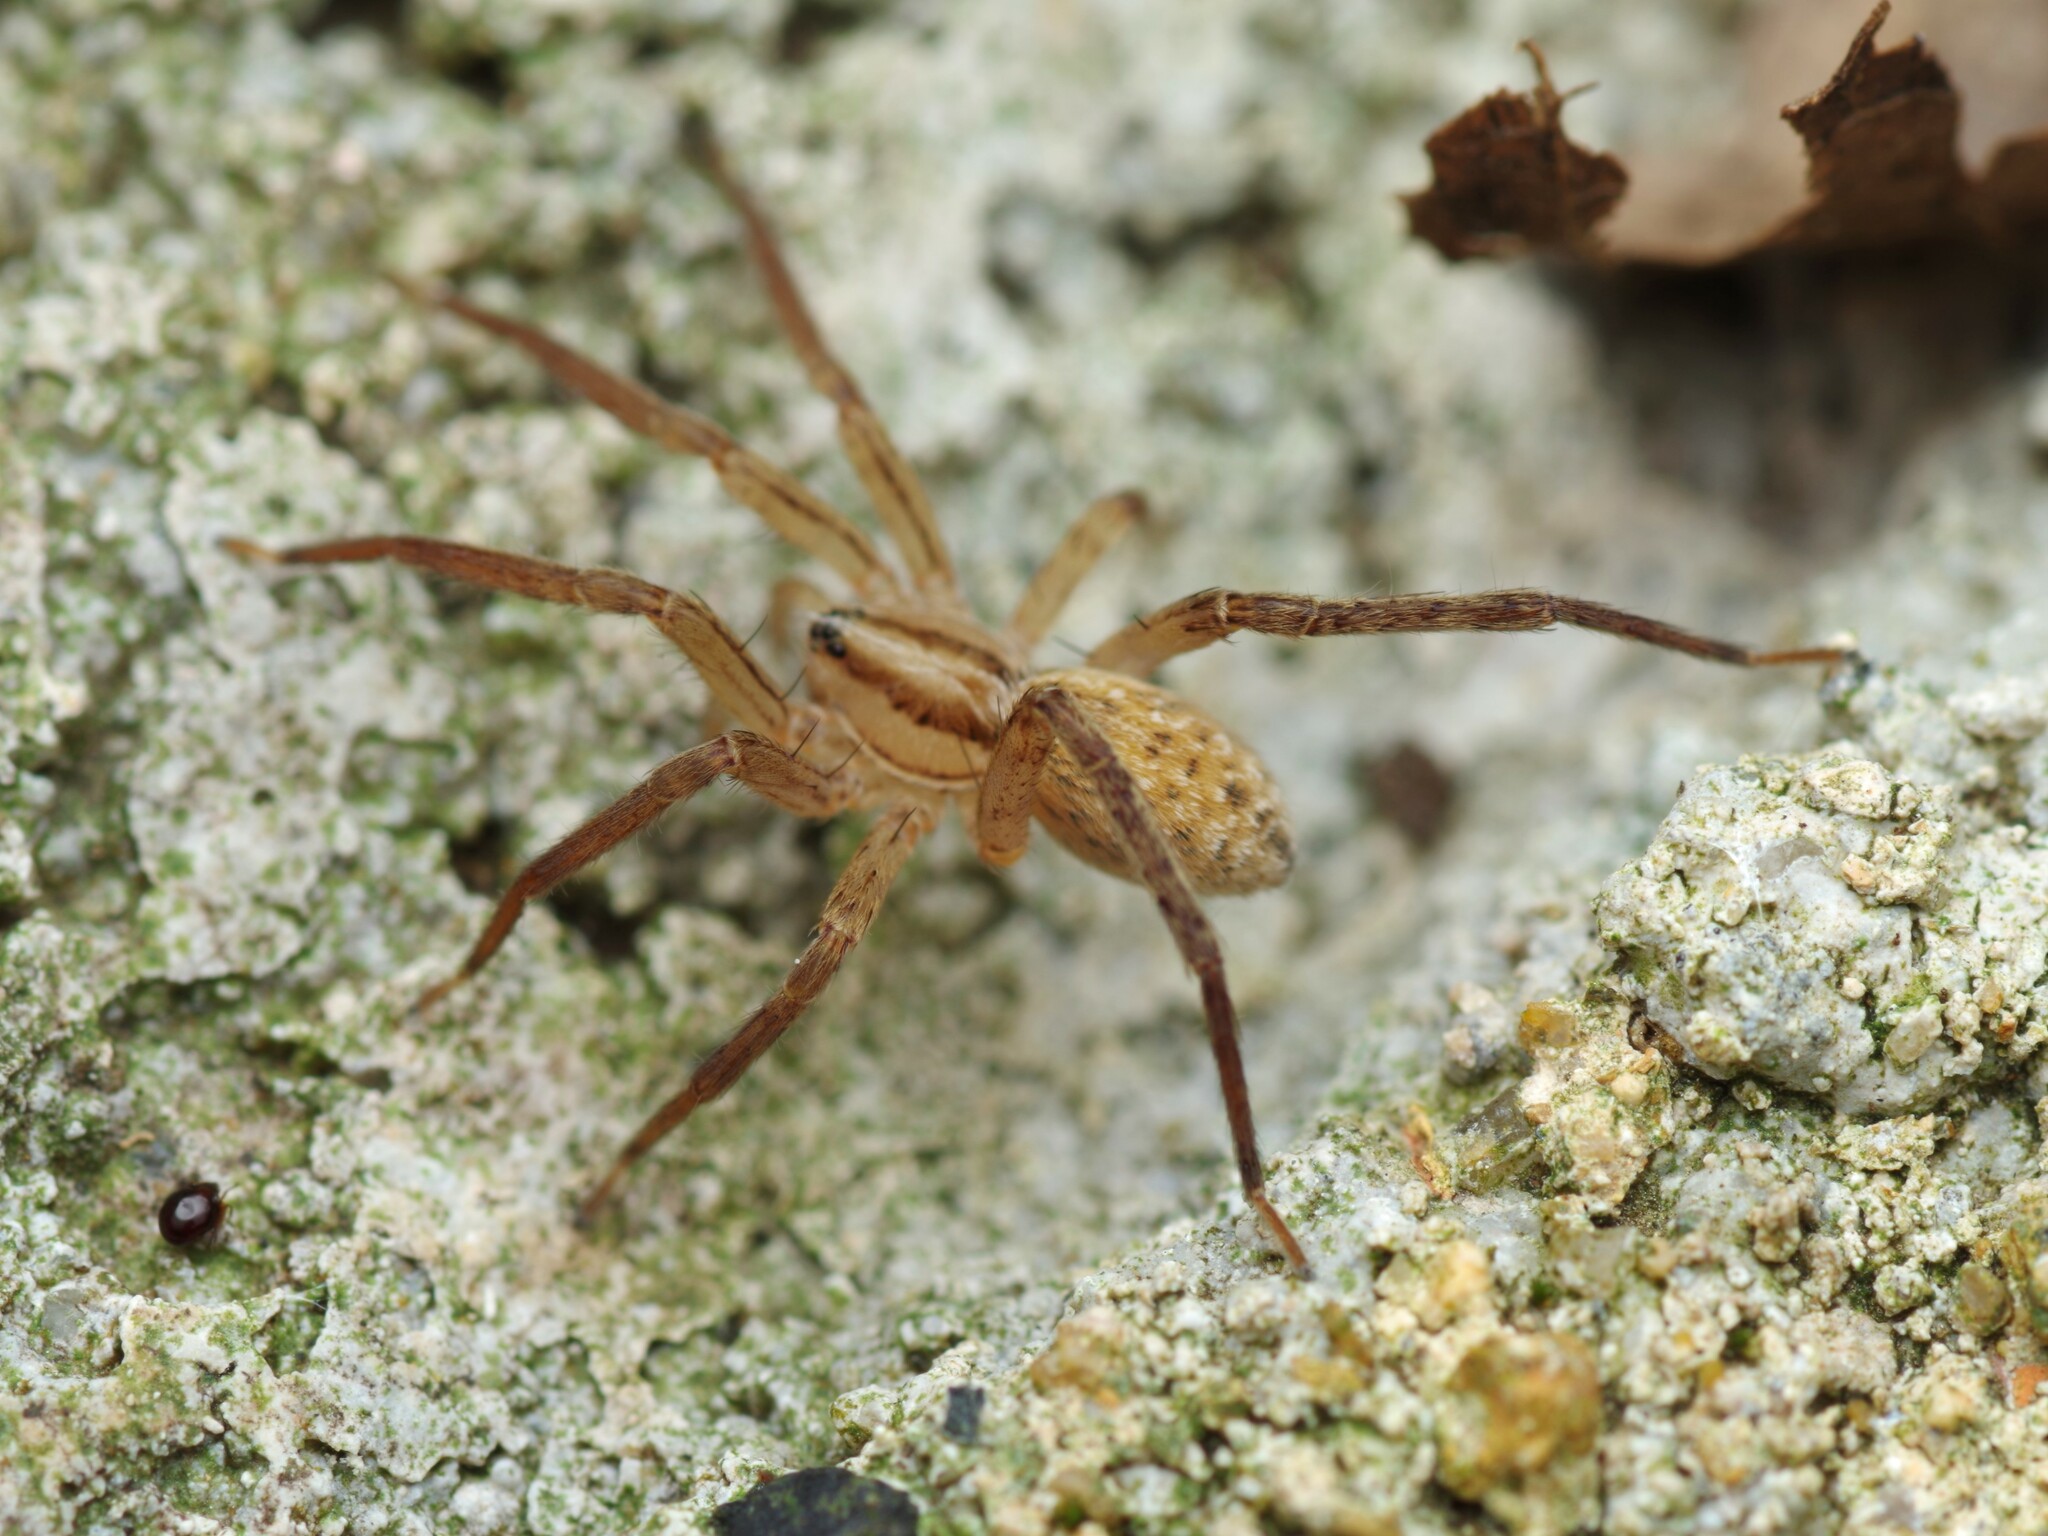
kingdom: Animalia
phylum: Arthropoda
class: Arachnida
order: Araneae
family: Miturgidae
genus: Zora
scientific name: Zora spinimana
